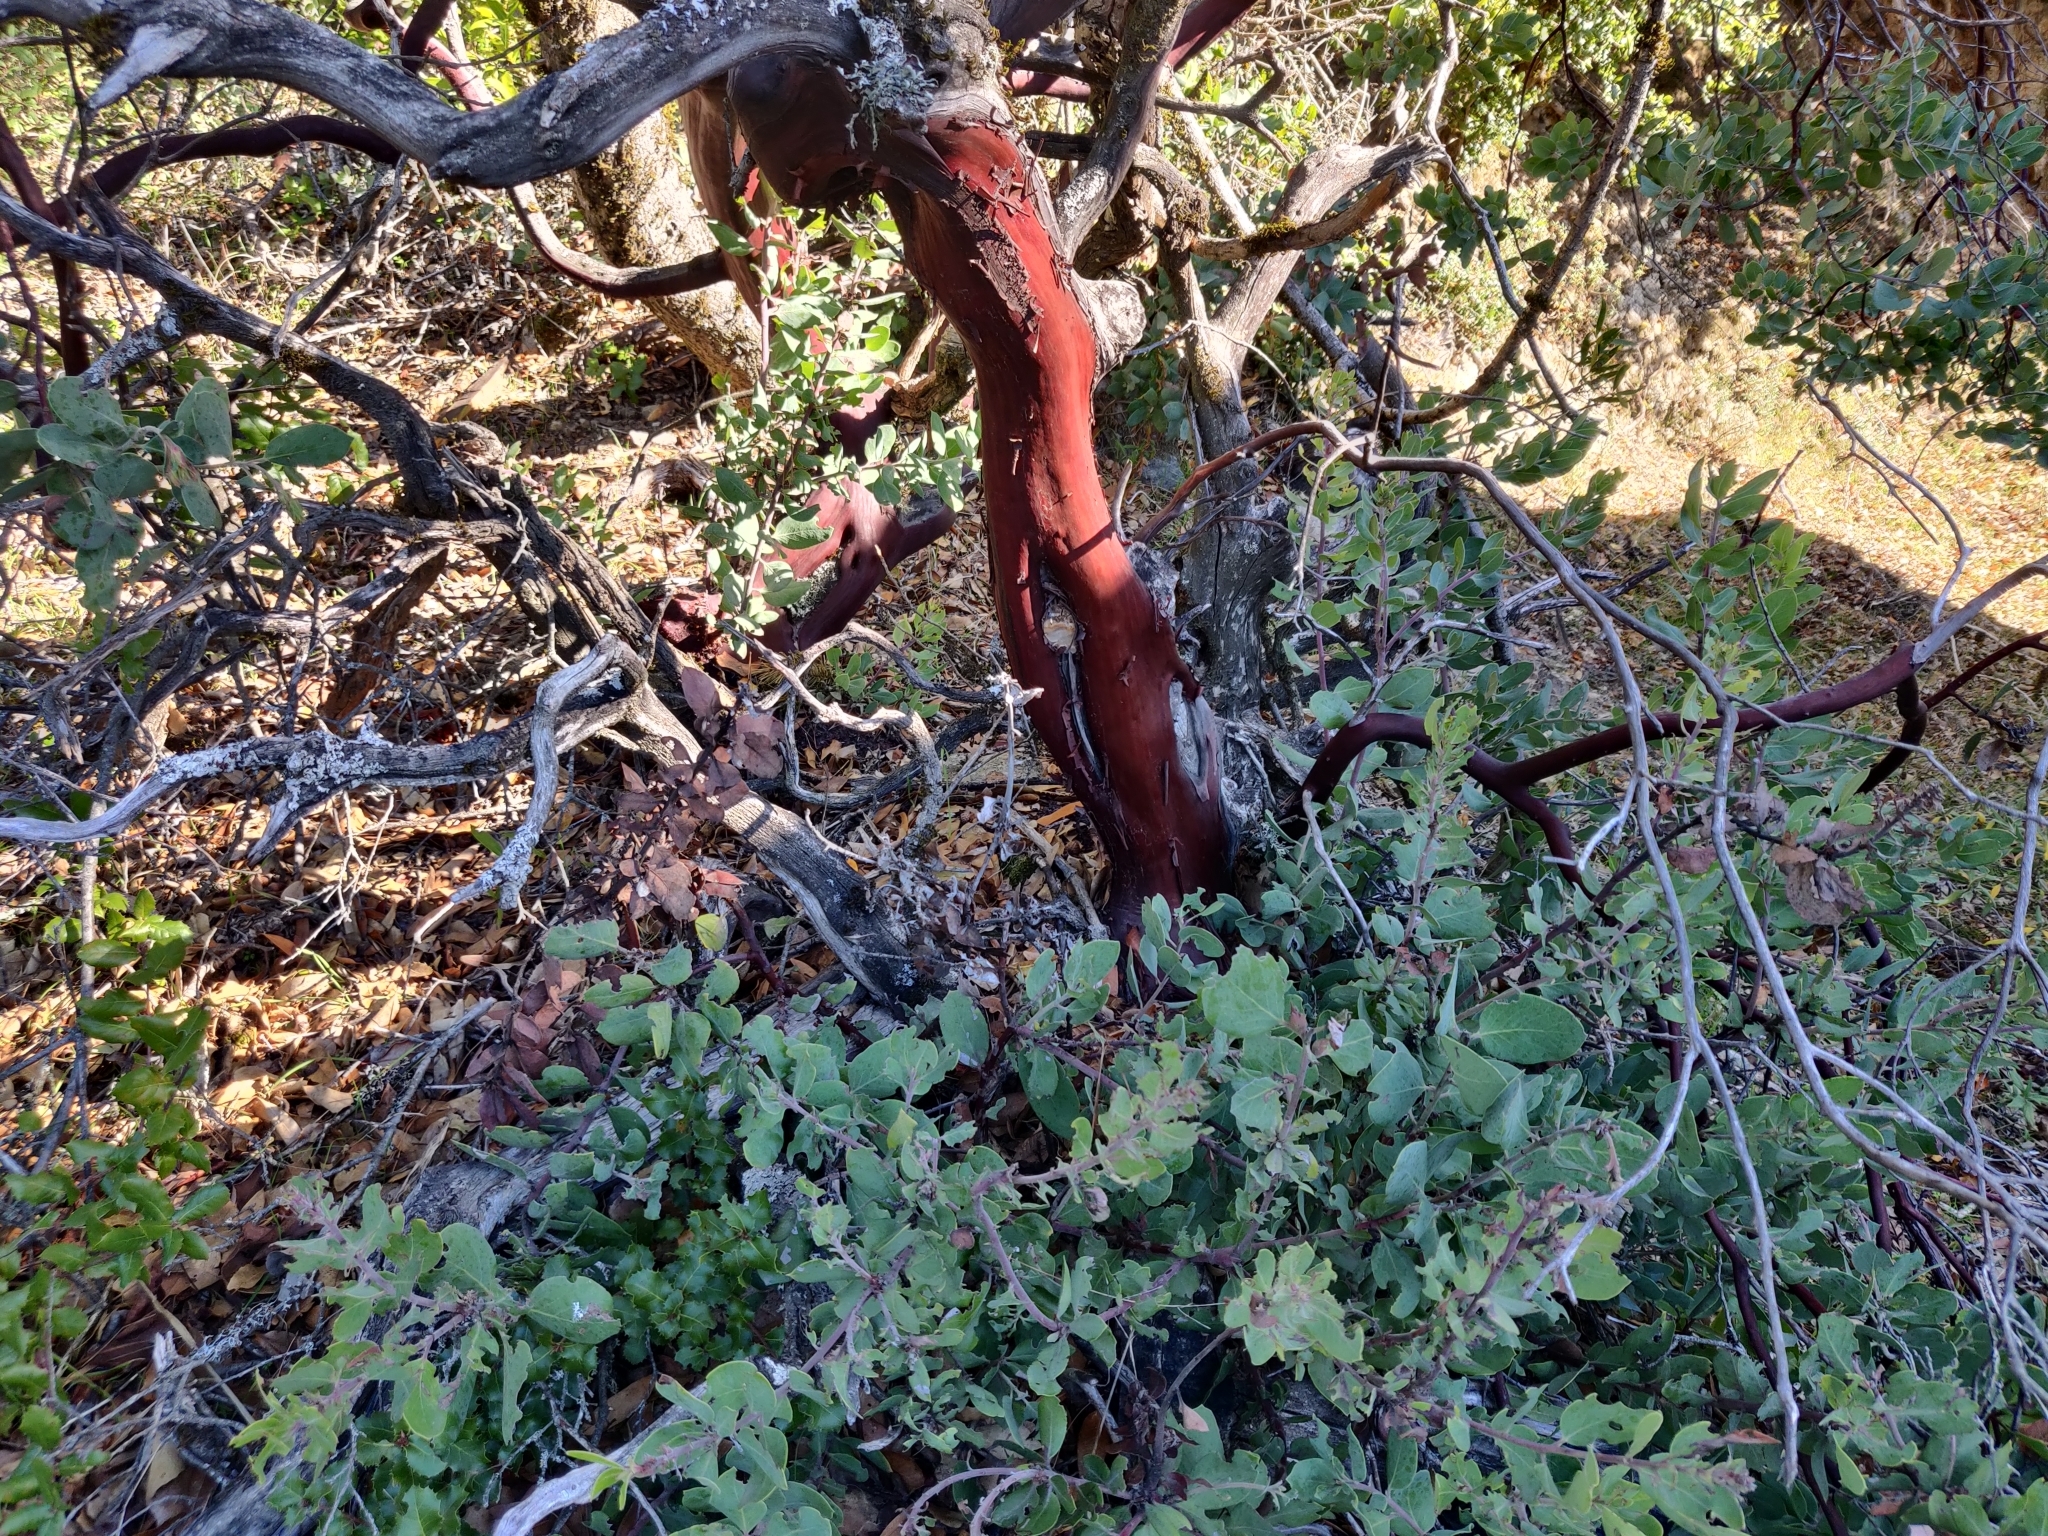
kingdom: Plantae
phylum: Tracheophyta
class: Magnoliopsida
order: Ericales
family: Ericaceae
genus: Arctostaphylos
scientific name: Arctostaphylos glandulosa
